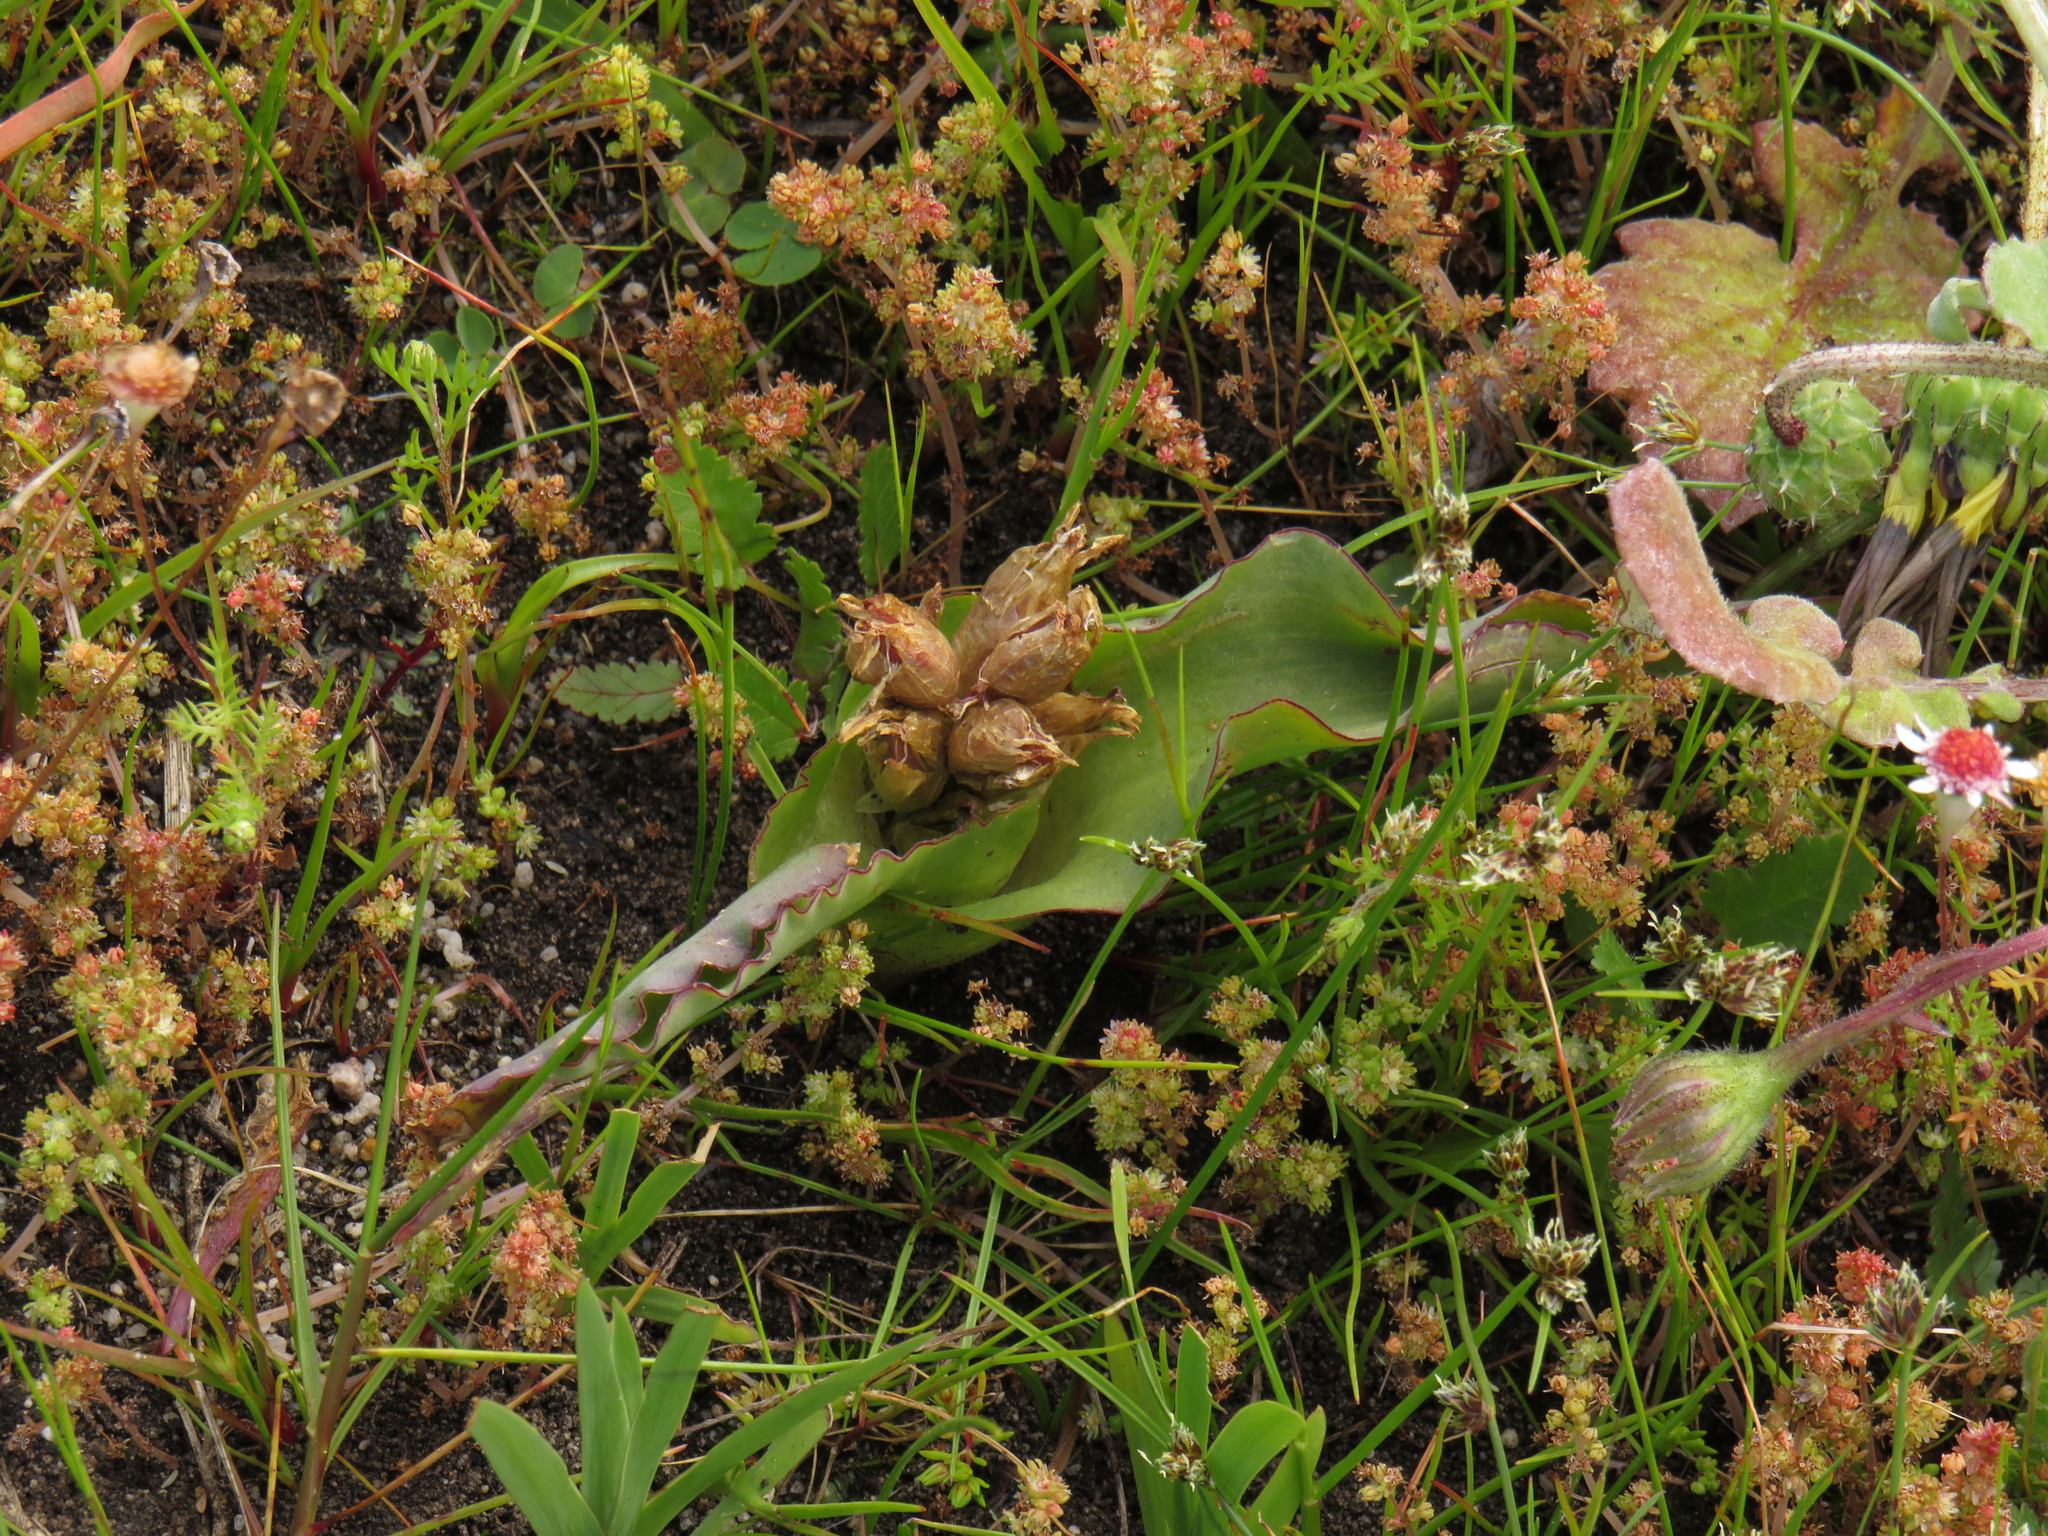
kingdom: Plantae
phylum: Tracheophyta
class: Liliopsida
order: Asparagales
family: Asparagaceae
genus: Lachenalia
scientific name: Lachenalia reflexa
